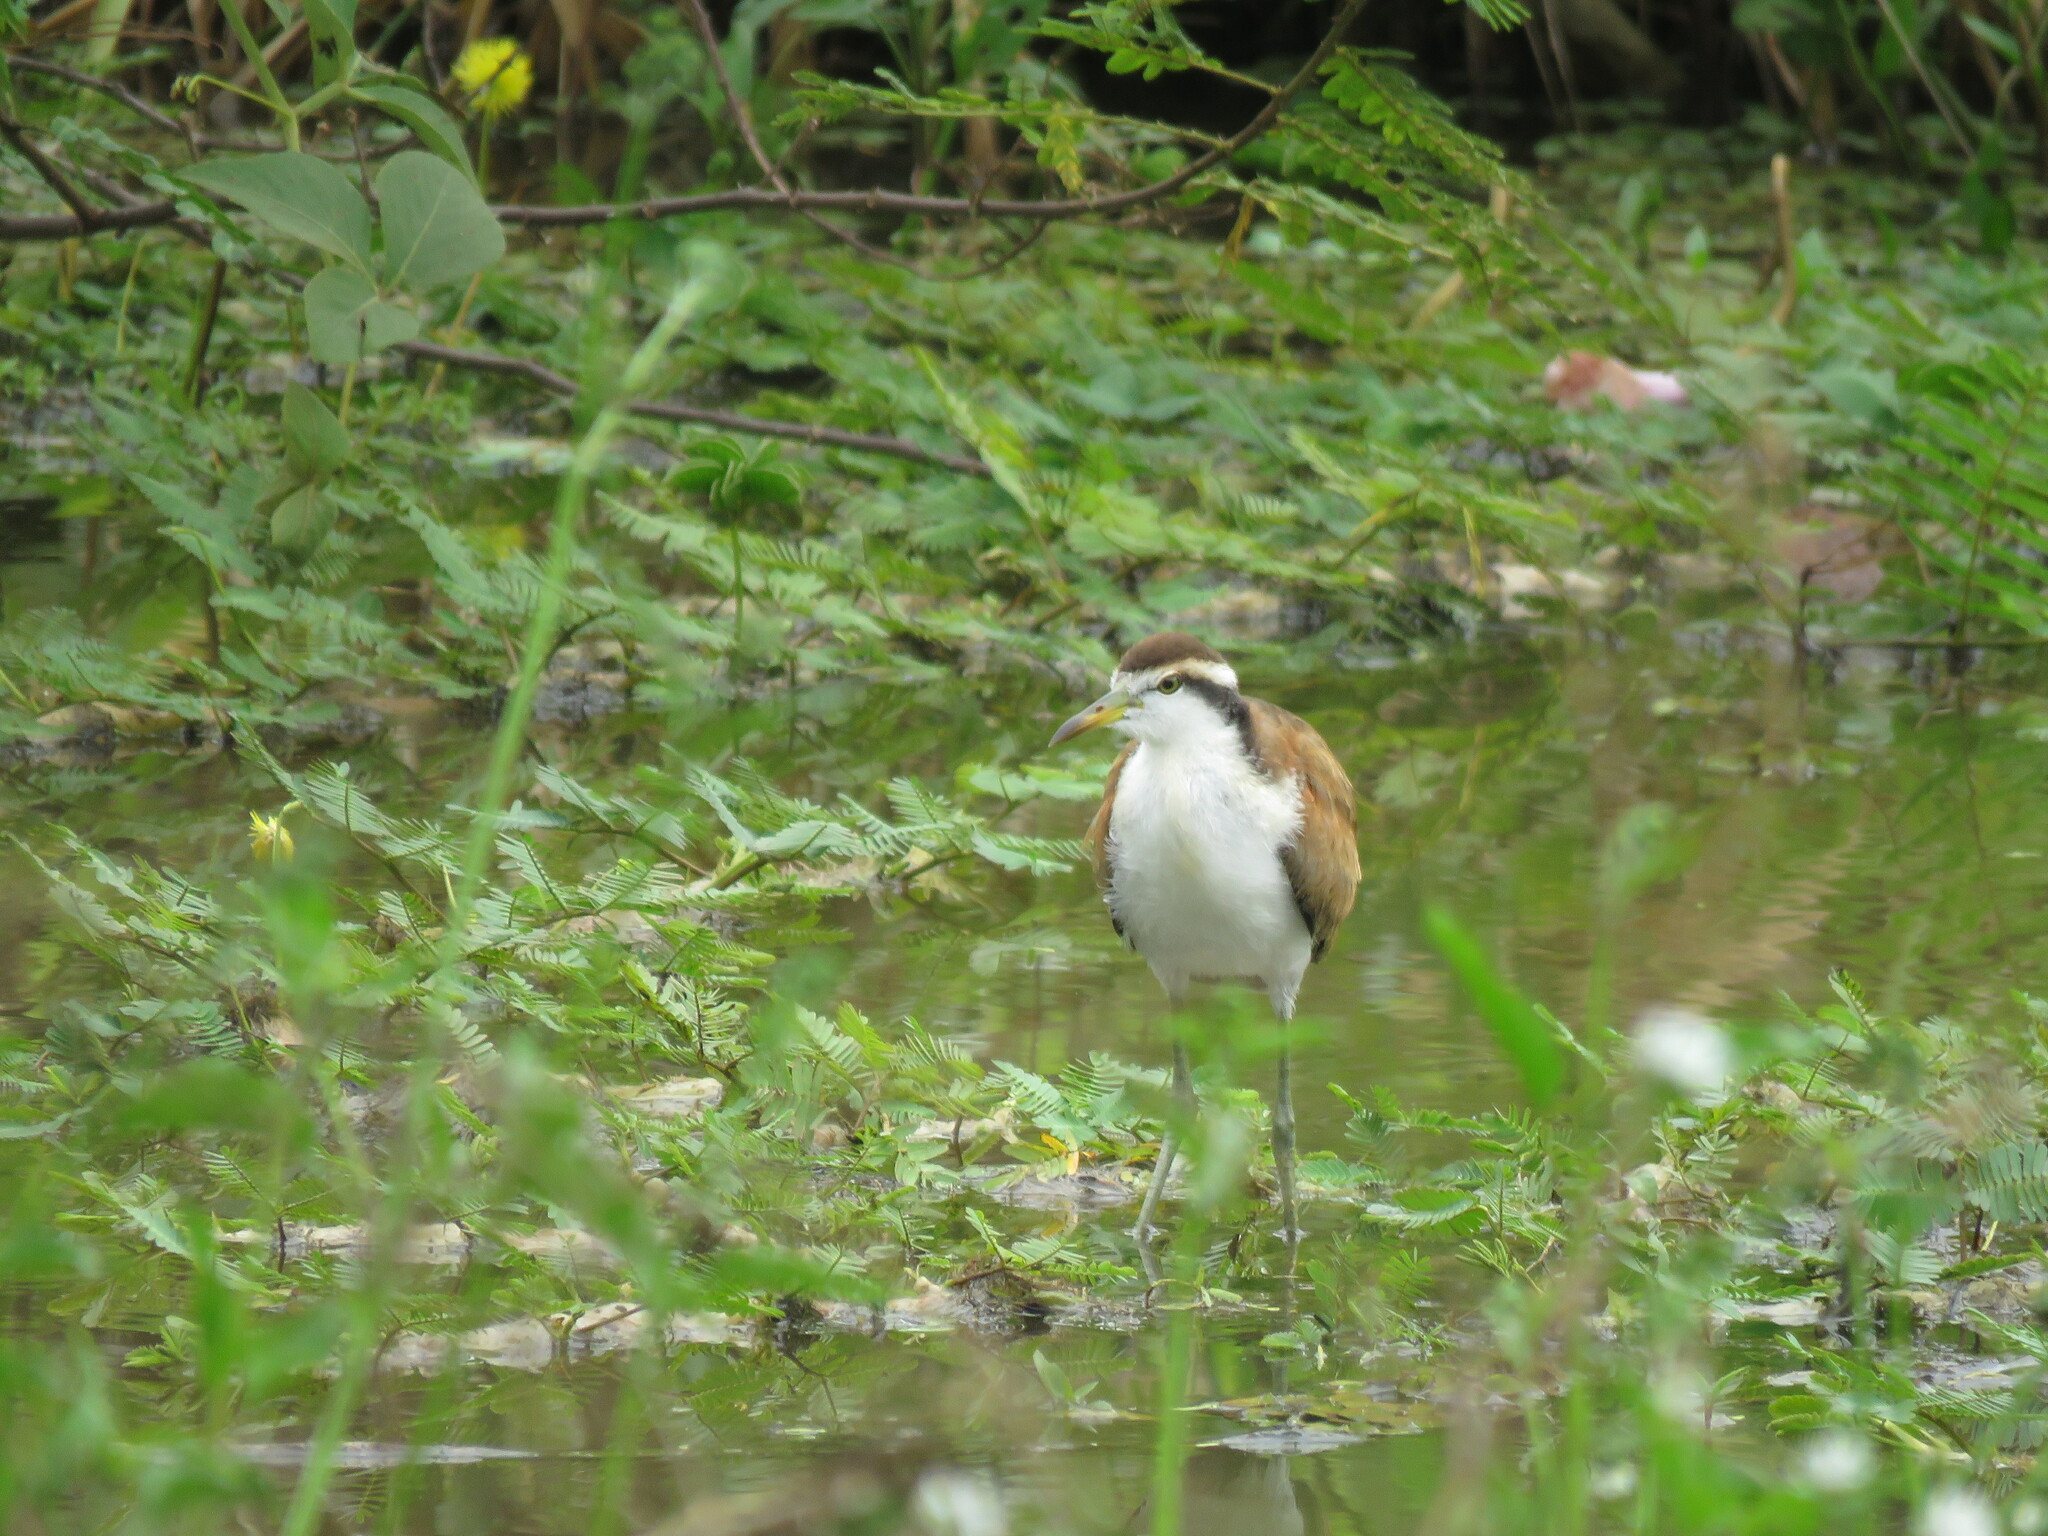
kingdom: Animalia
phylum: Chordata
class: Aves
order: Charadriiformes
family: Jacanidae
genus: Jacana
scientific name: Jacana jacana
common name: Wattled jacana
